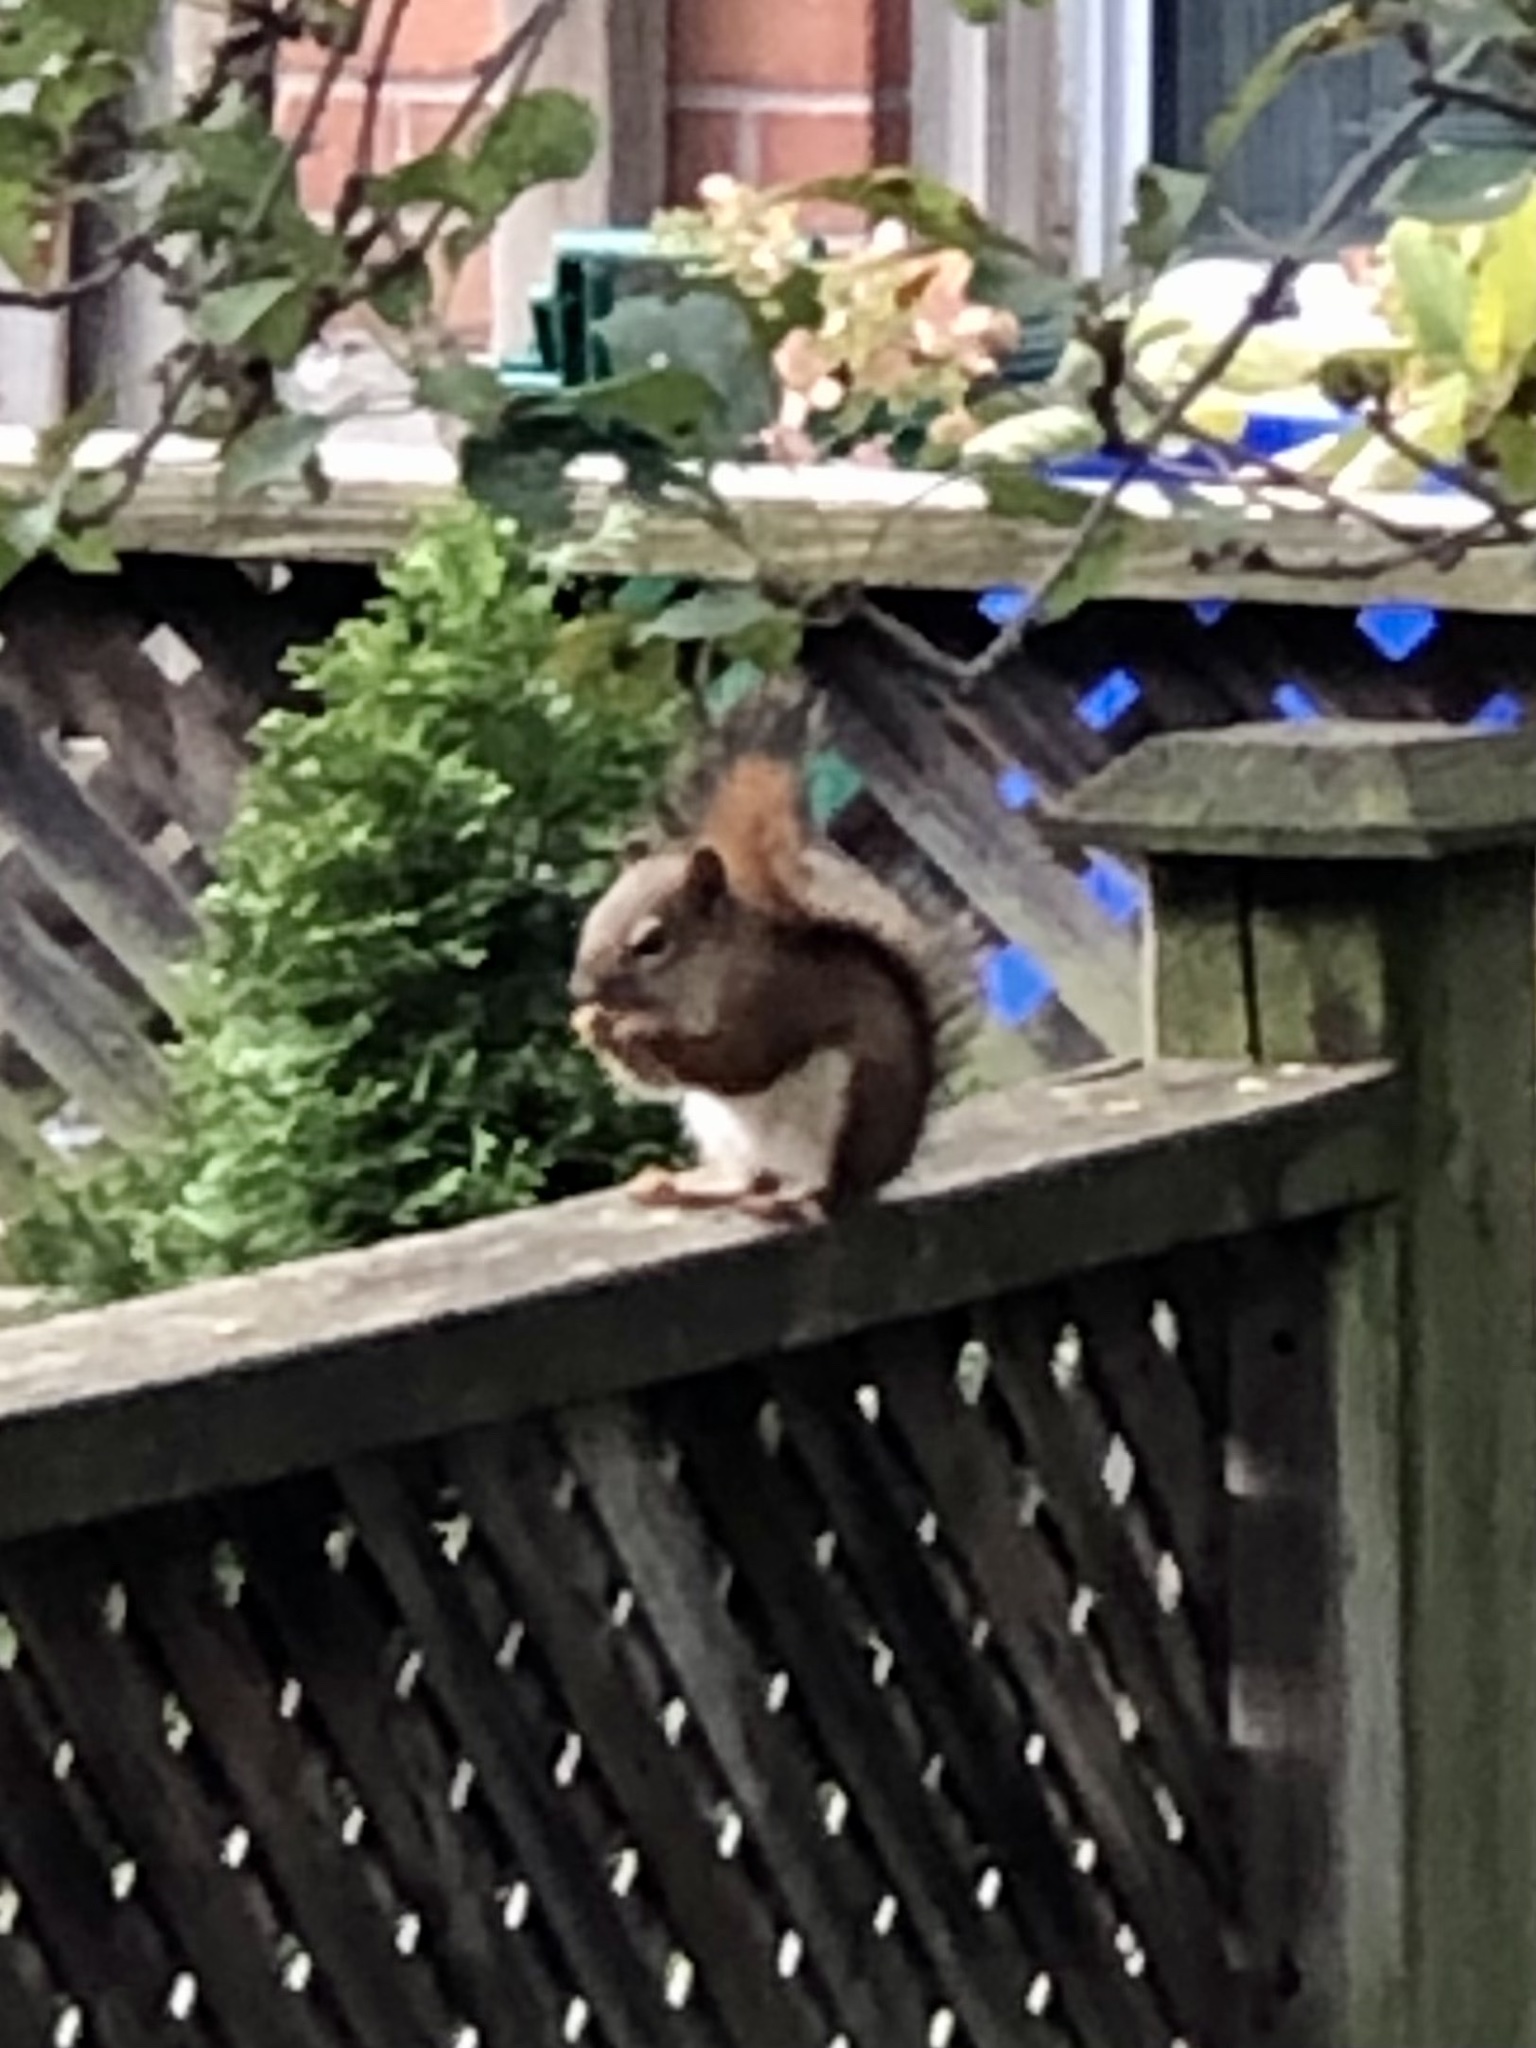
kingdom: Animalia
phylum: Chordata
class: Mammalia
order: Rodentia
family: Sciuridae
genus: Tamiasciurus
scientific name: Tamiasciurus hudsonicus
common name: Red squirrel
